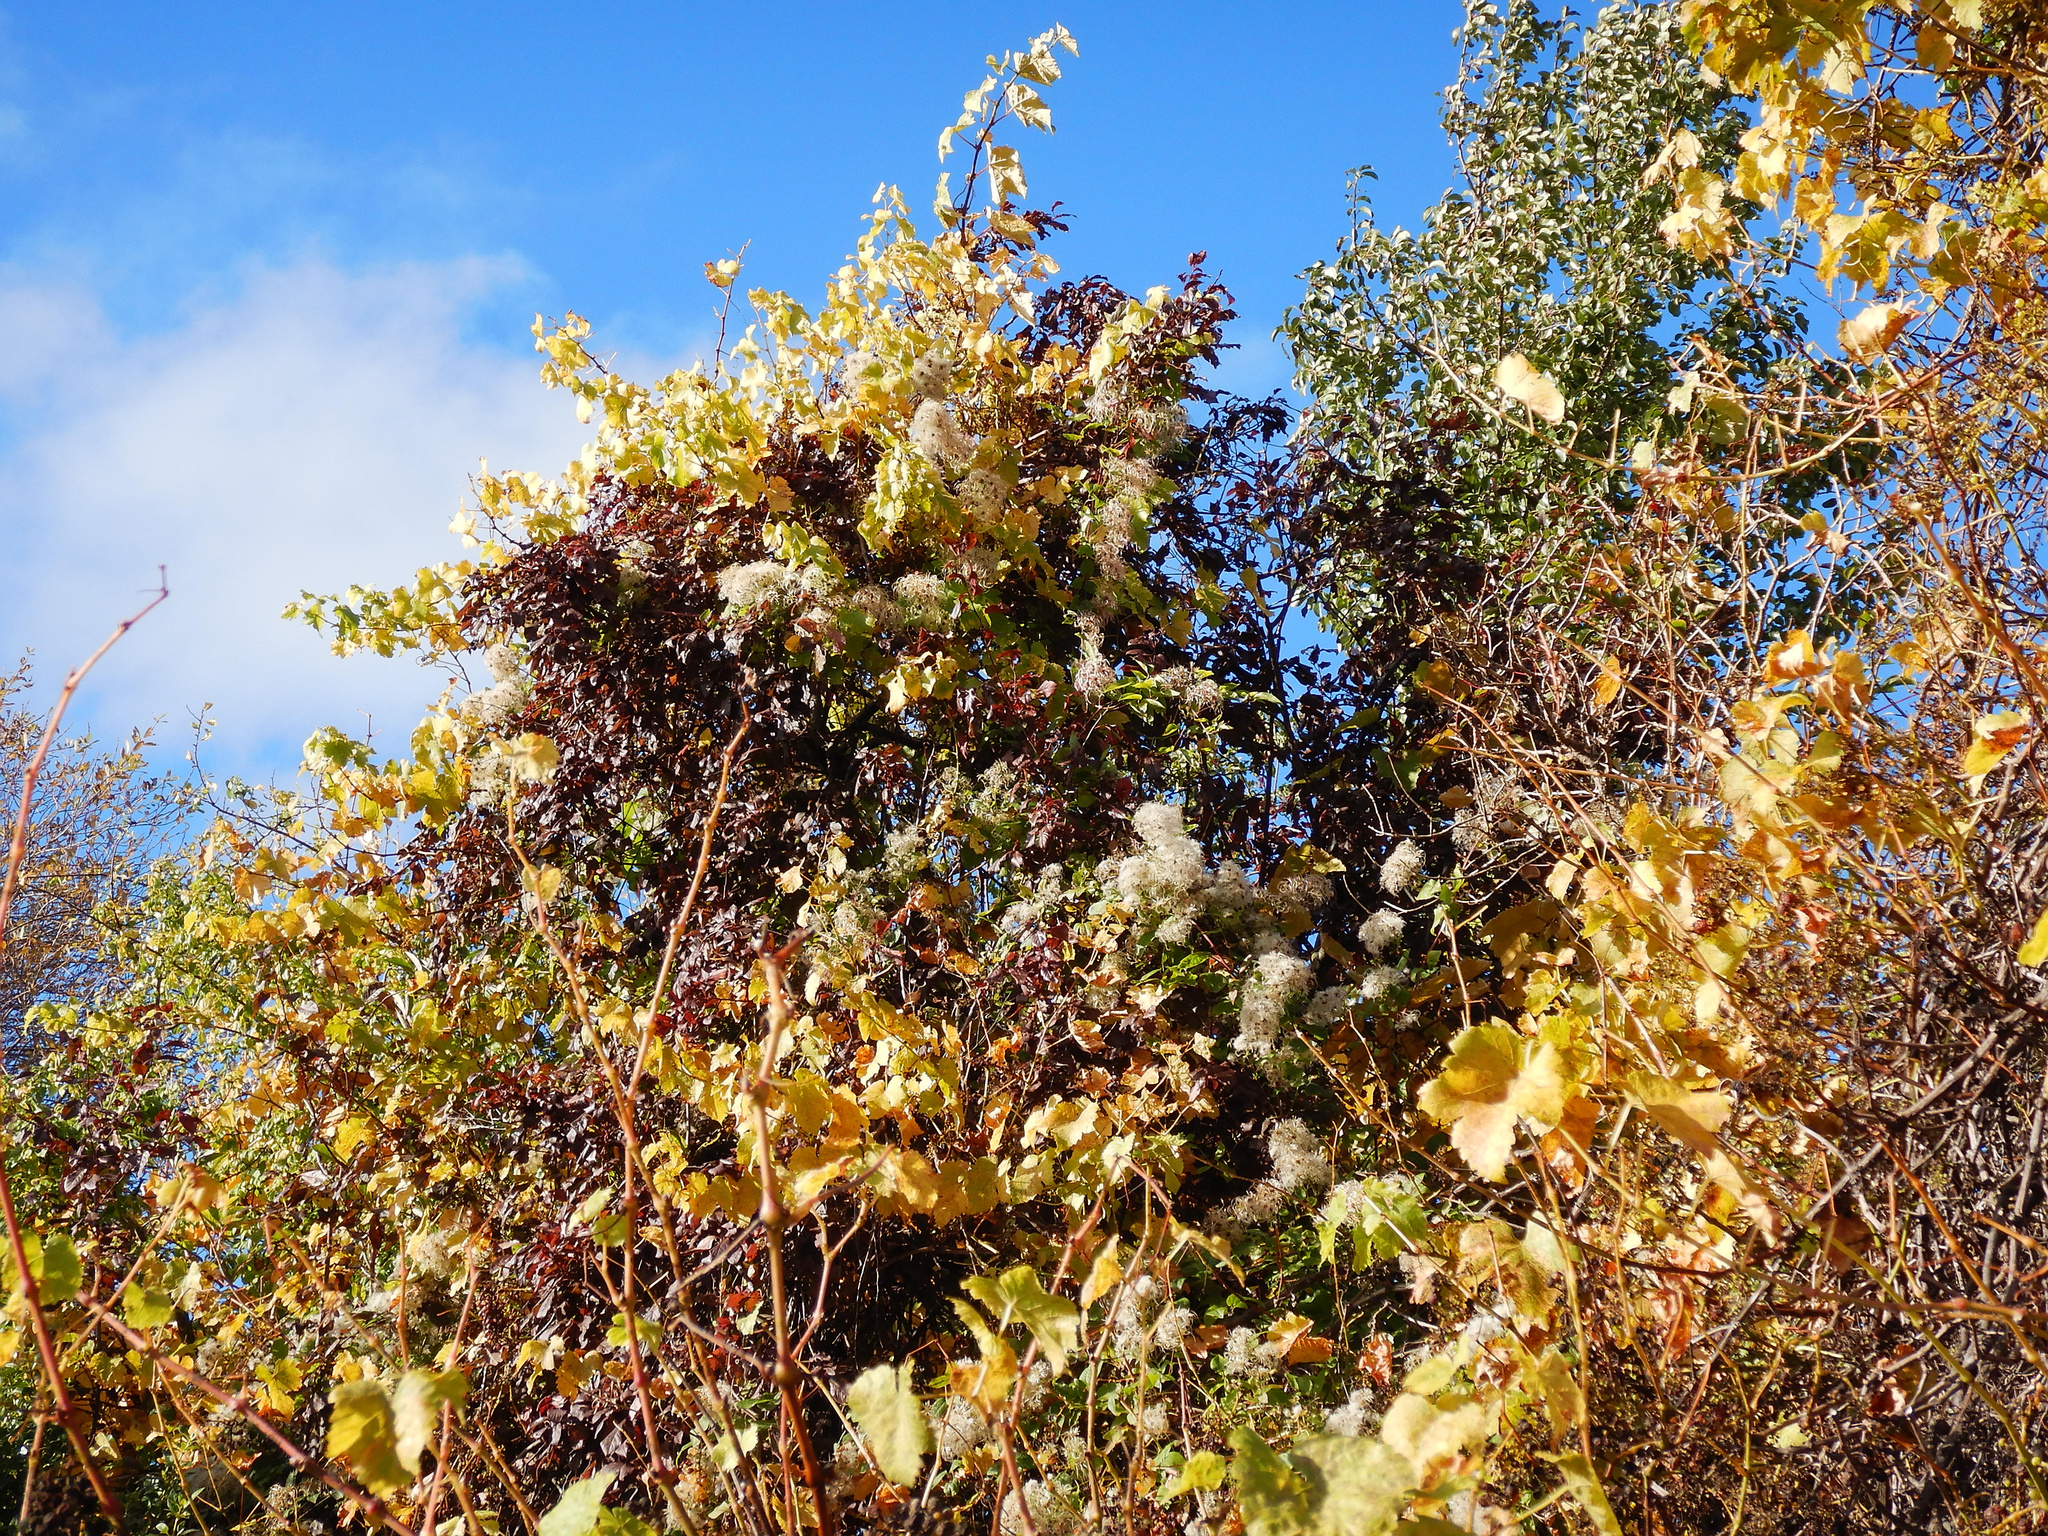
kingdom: Plantae
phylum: Tracheophyta
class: Magnoliopsida
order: Ranunculales
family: Ranunculaceae
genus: Clematis
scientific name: Clematis vitalba
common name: Evergreen clematis
